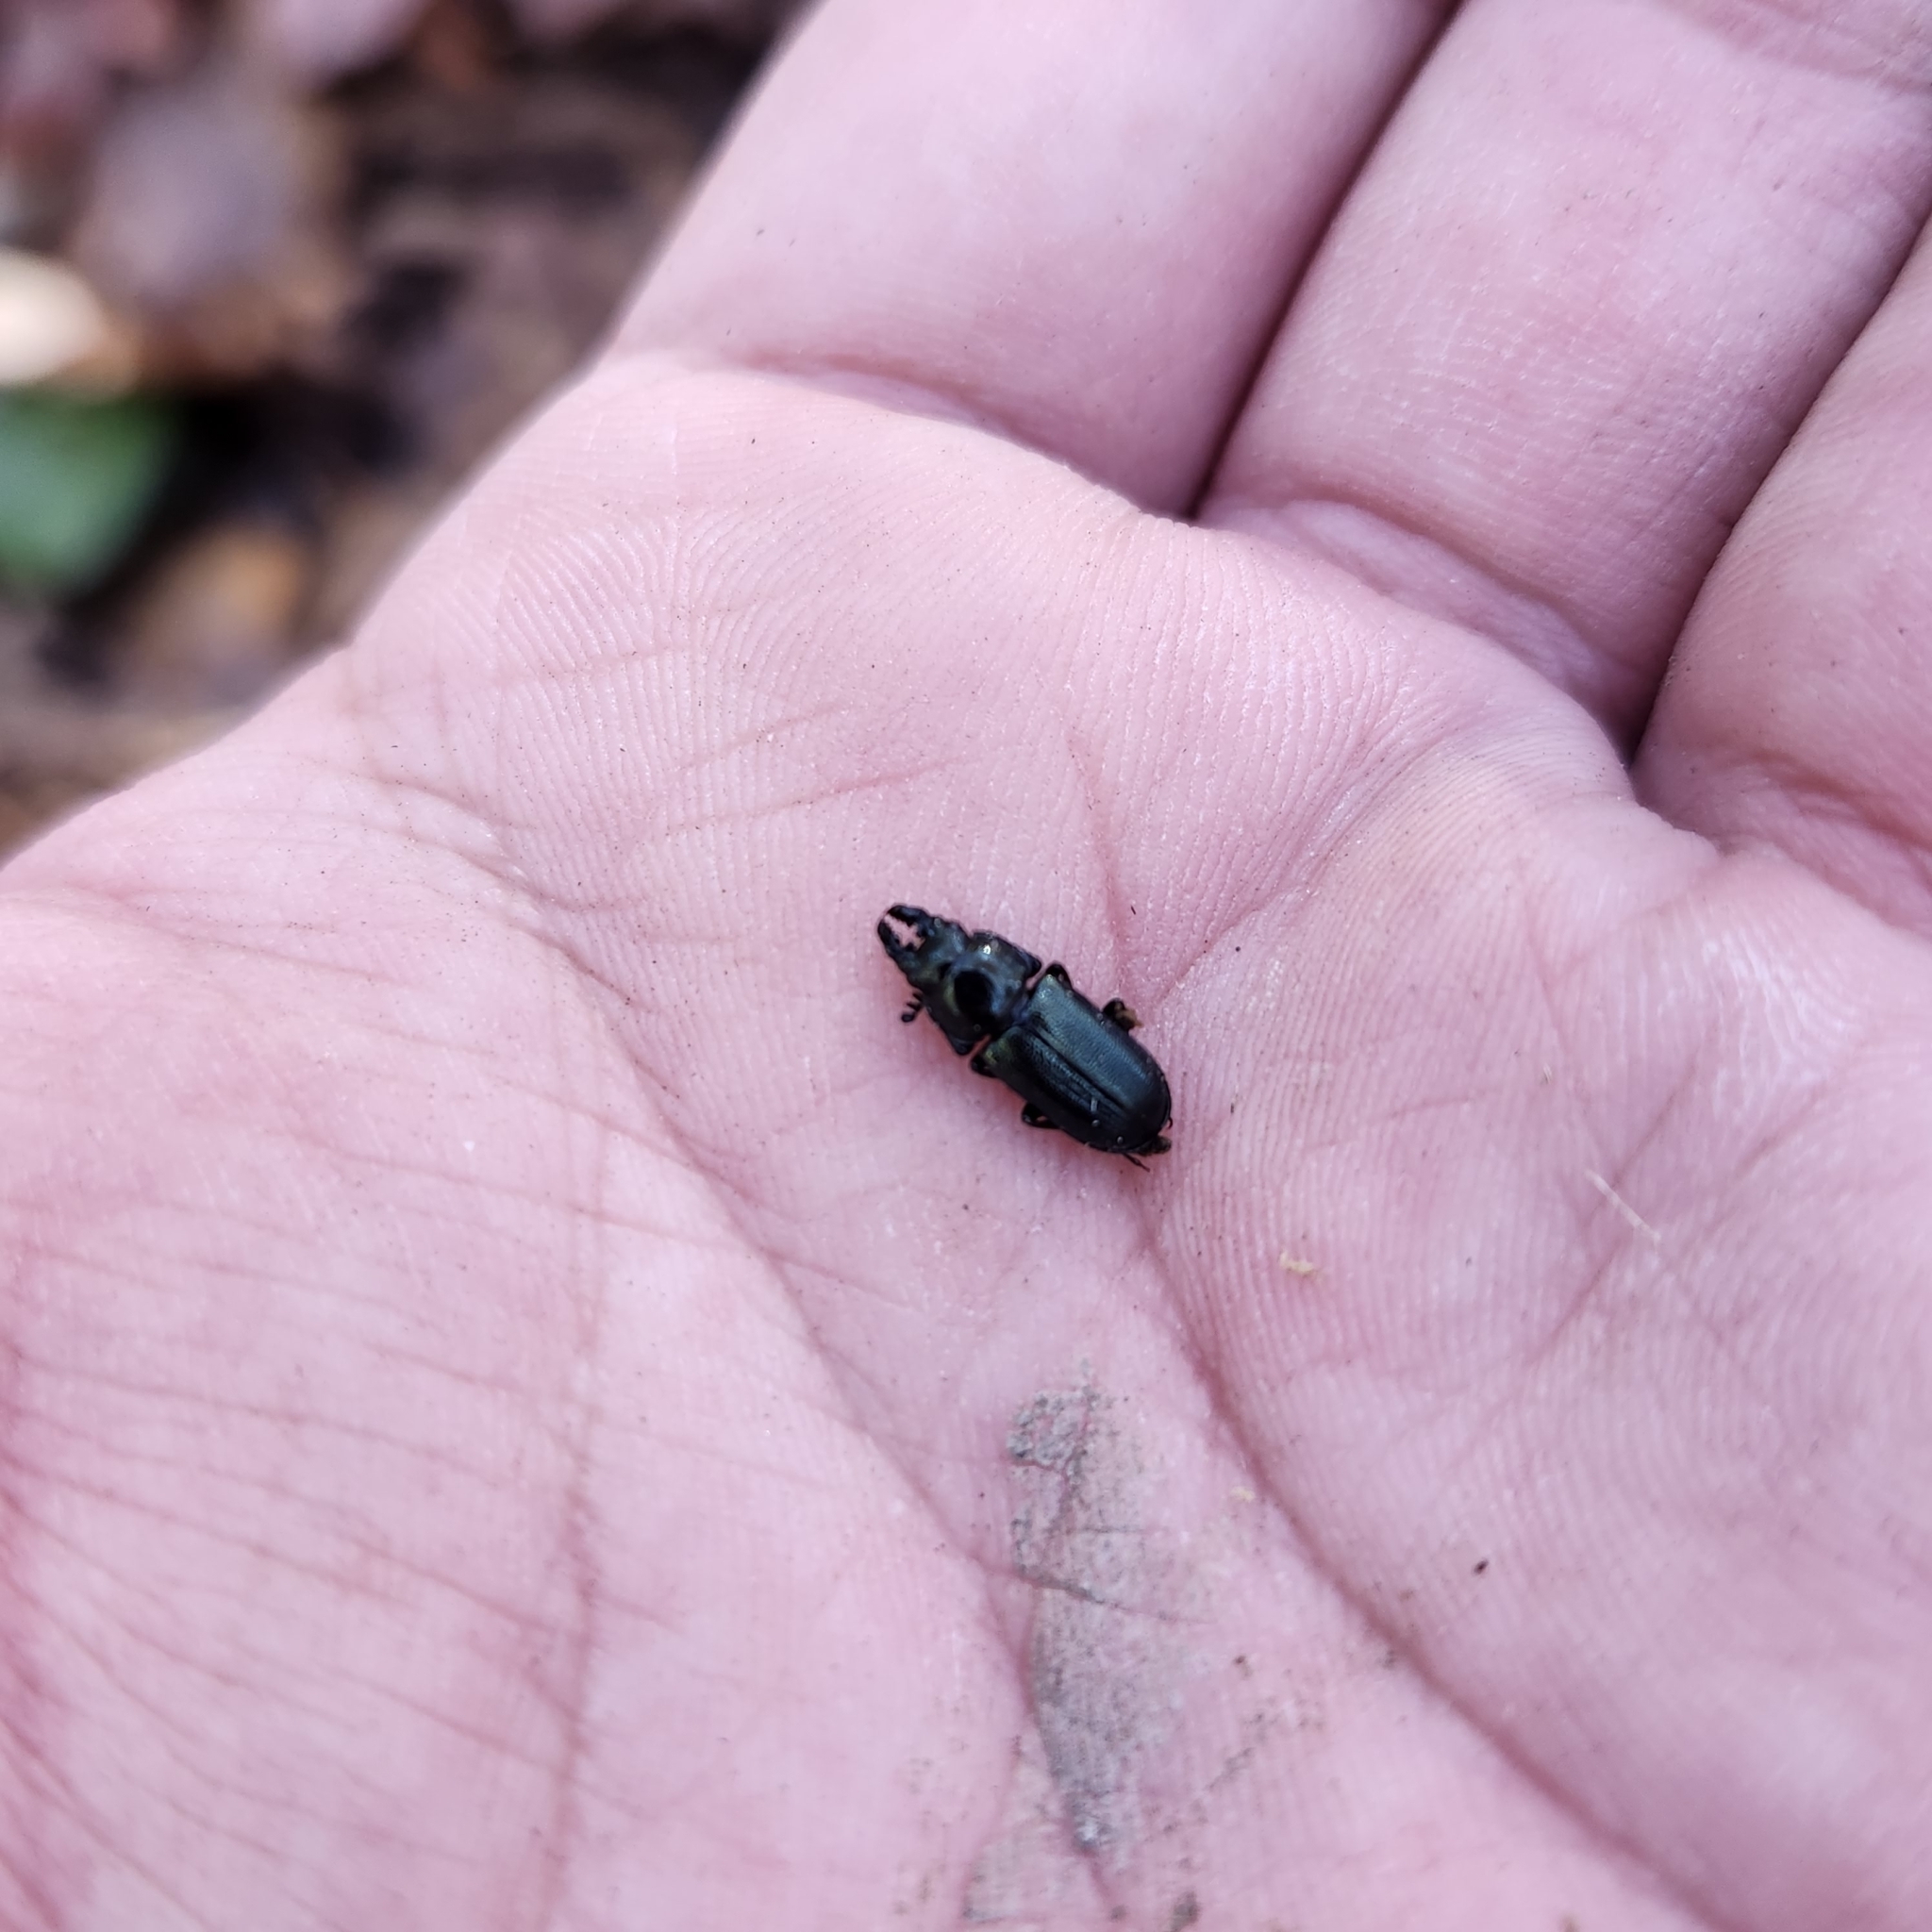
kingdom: Animalia
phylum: Arthropoda
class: Insecta
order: Coleoptera
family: Lucanidae
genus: Platycerus
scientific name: Platycerus quercus
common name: Oak stag beetle
